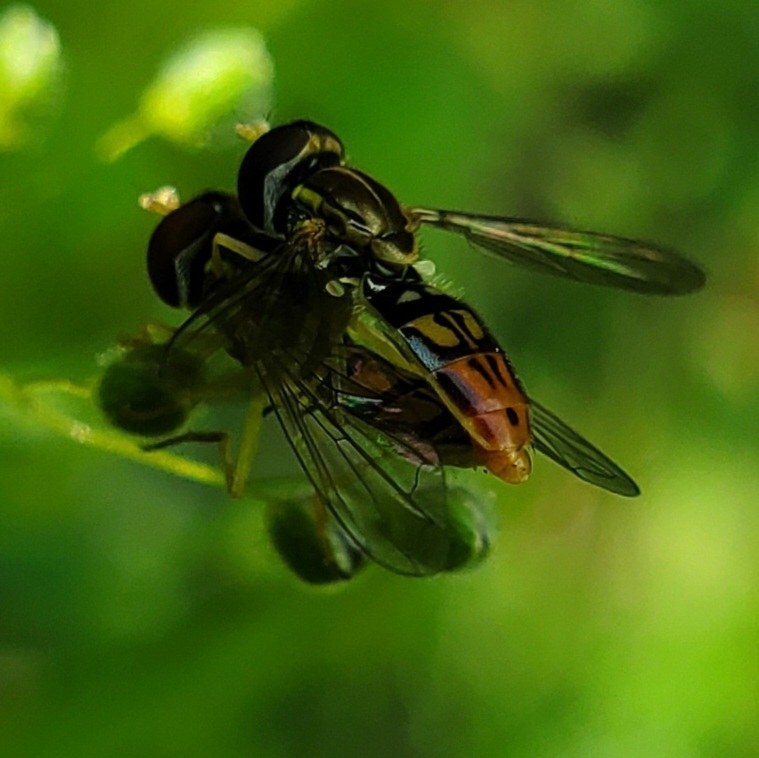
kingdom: Animalia
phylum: Arthropoda
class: Insecta
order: Diptera
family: Syrphidae
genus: Toxomerus
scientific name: Toxomerus marginatus
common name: Syrphid fly
